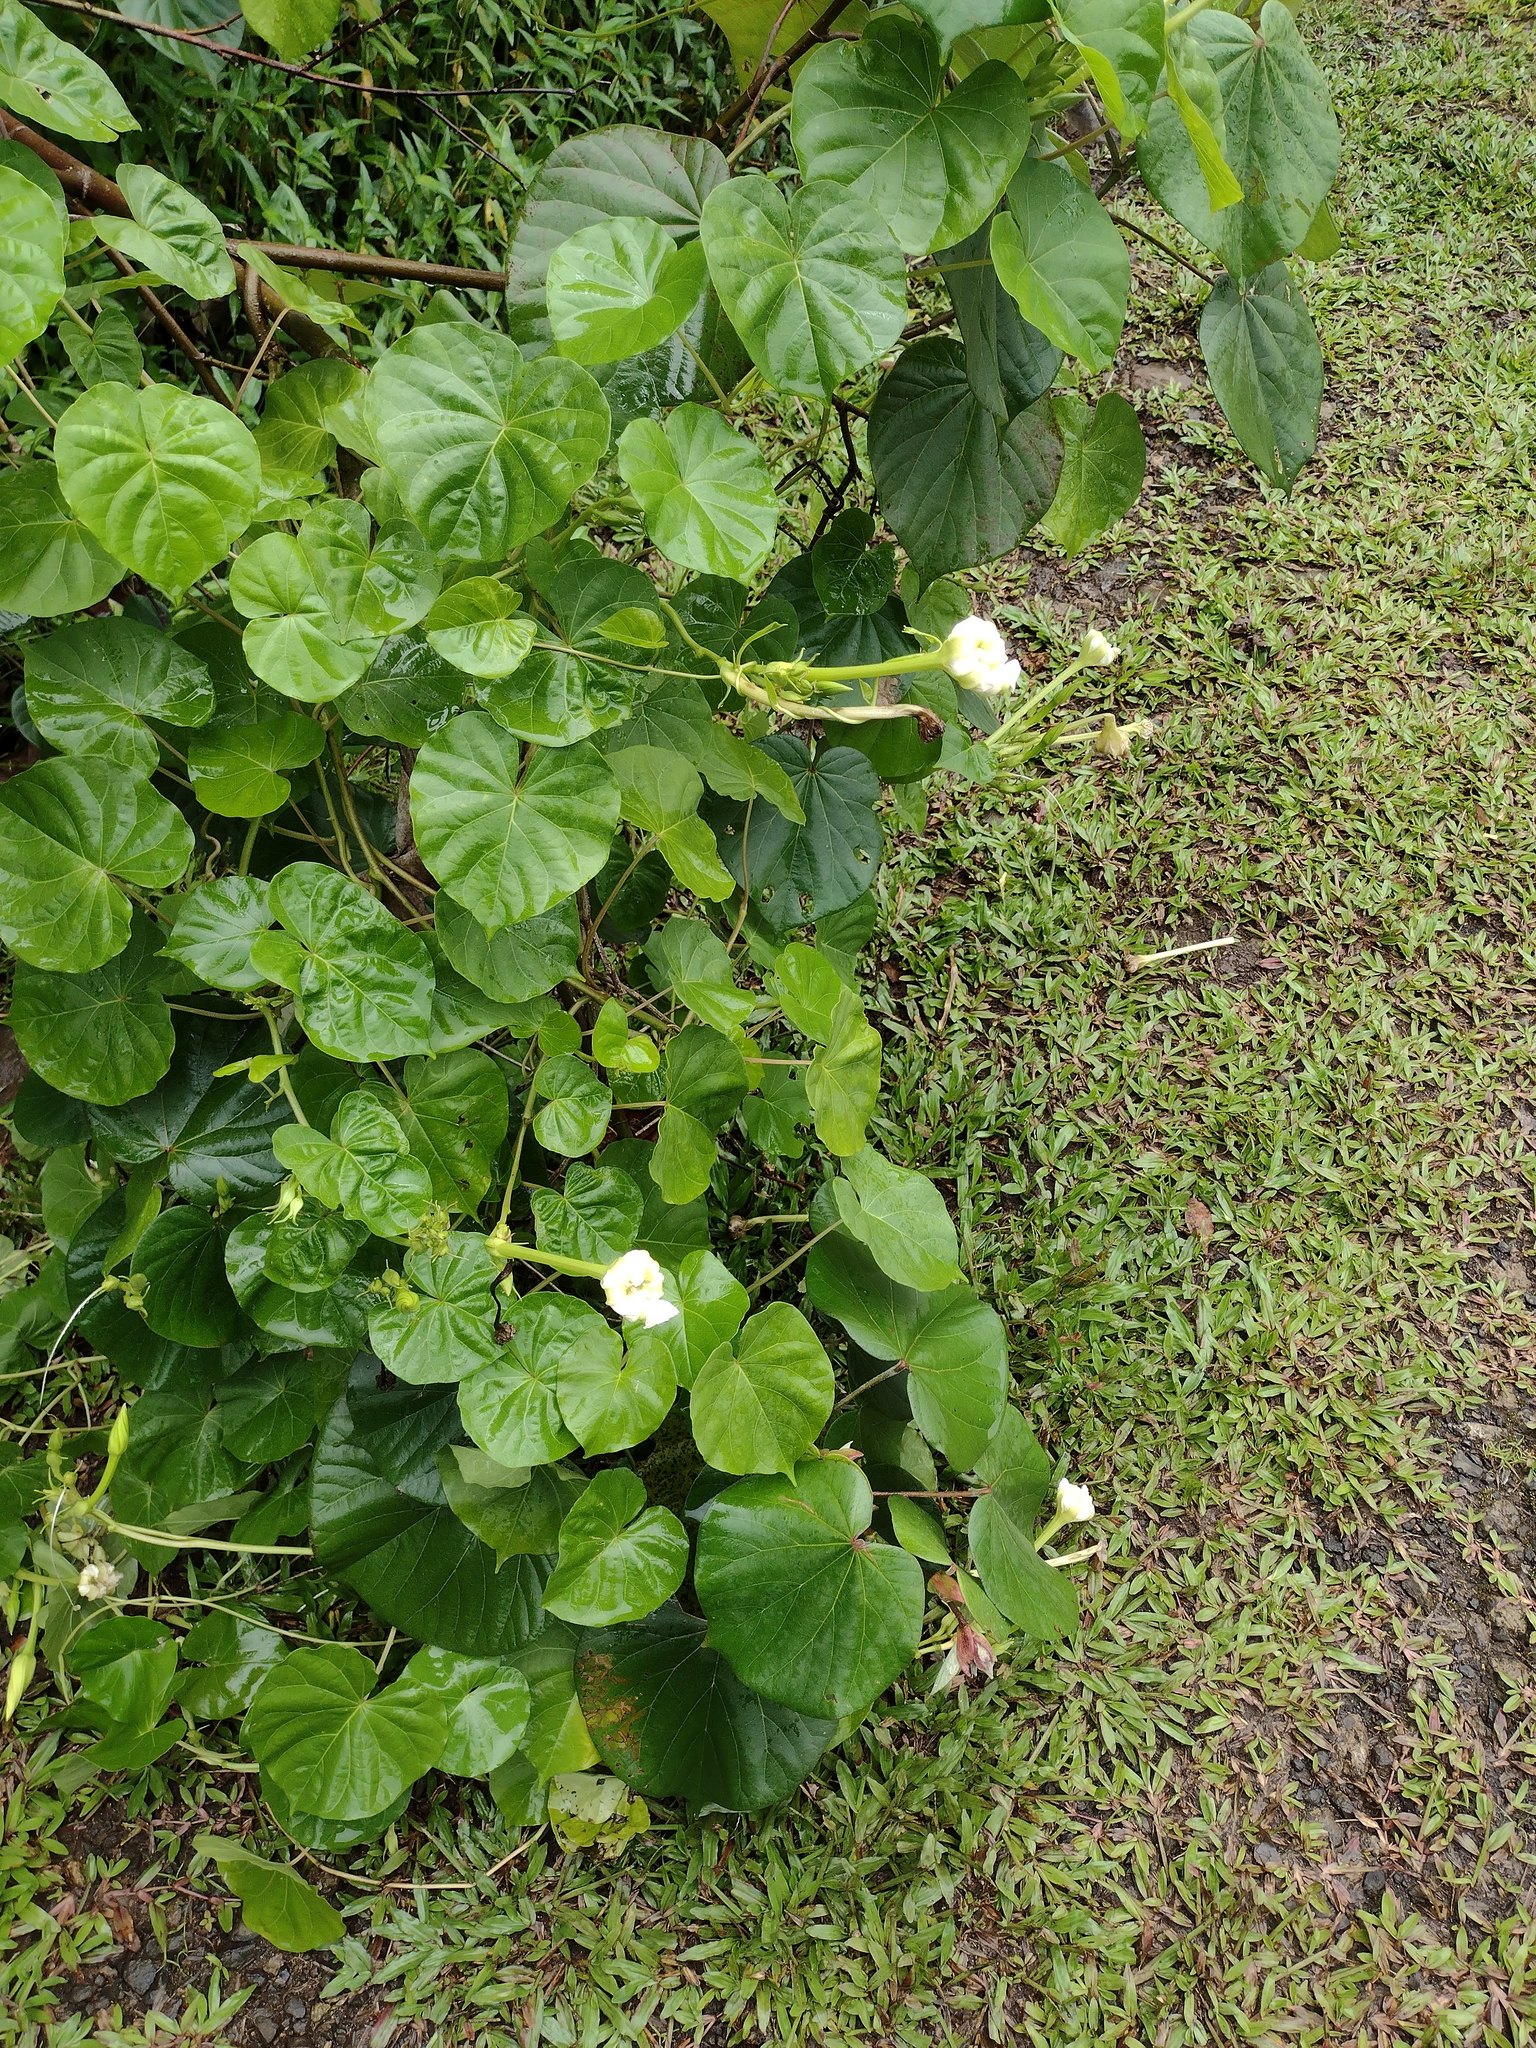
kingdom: Plantae
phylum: Tracheophyta
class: Magnoliopsida
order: Solanales
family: Convolvulaceae
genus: Ipomoea
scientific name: Ipomoea alba
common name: Moonflower
